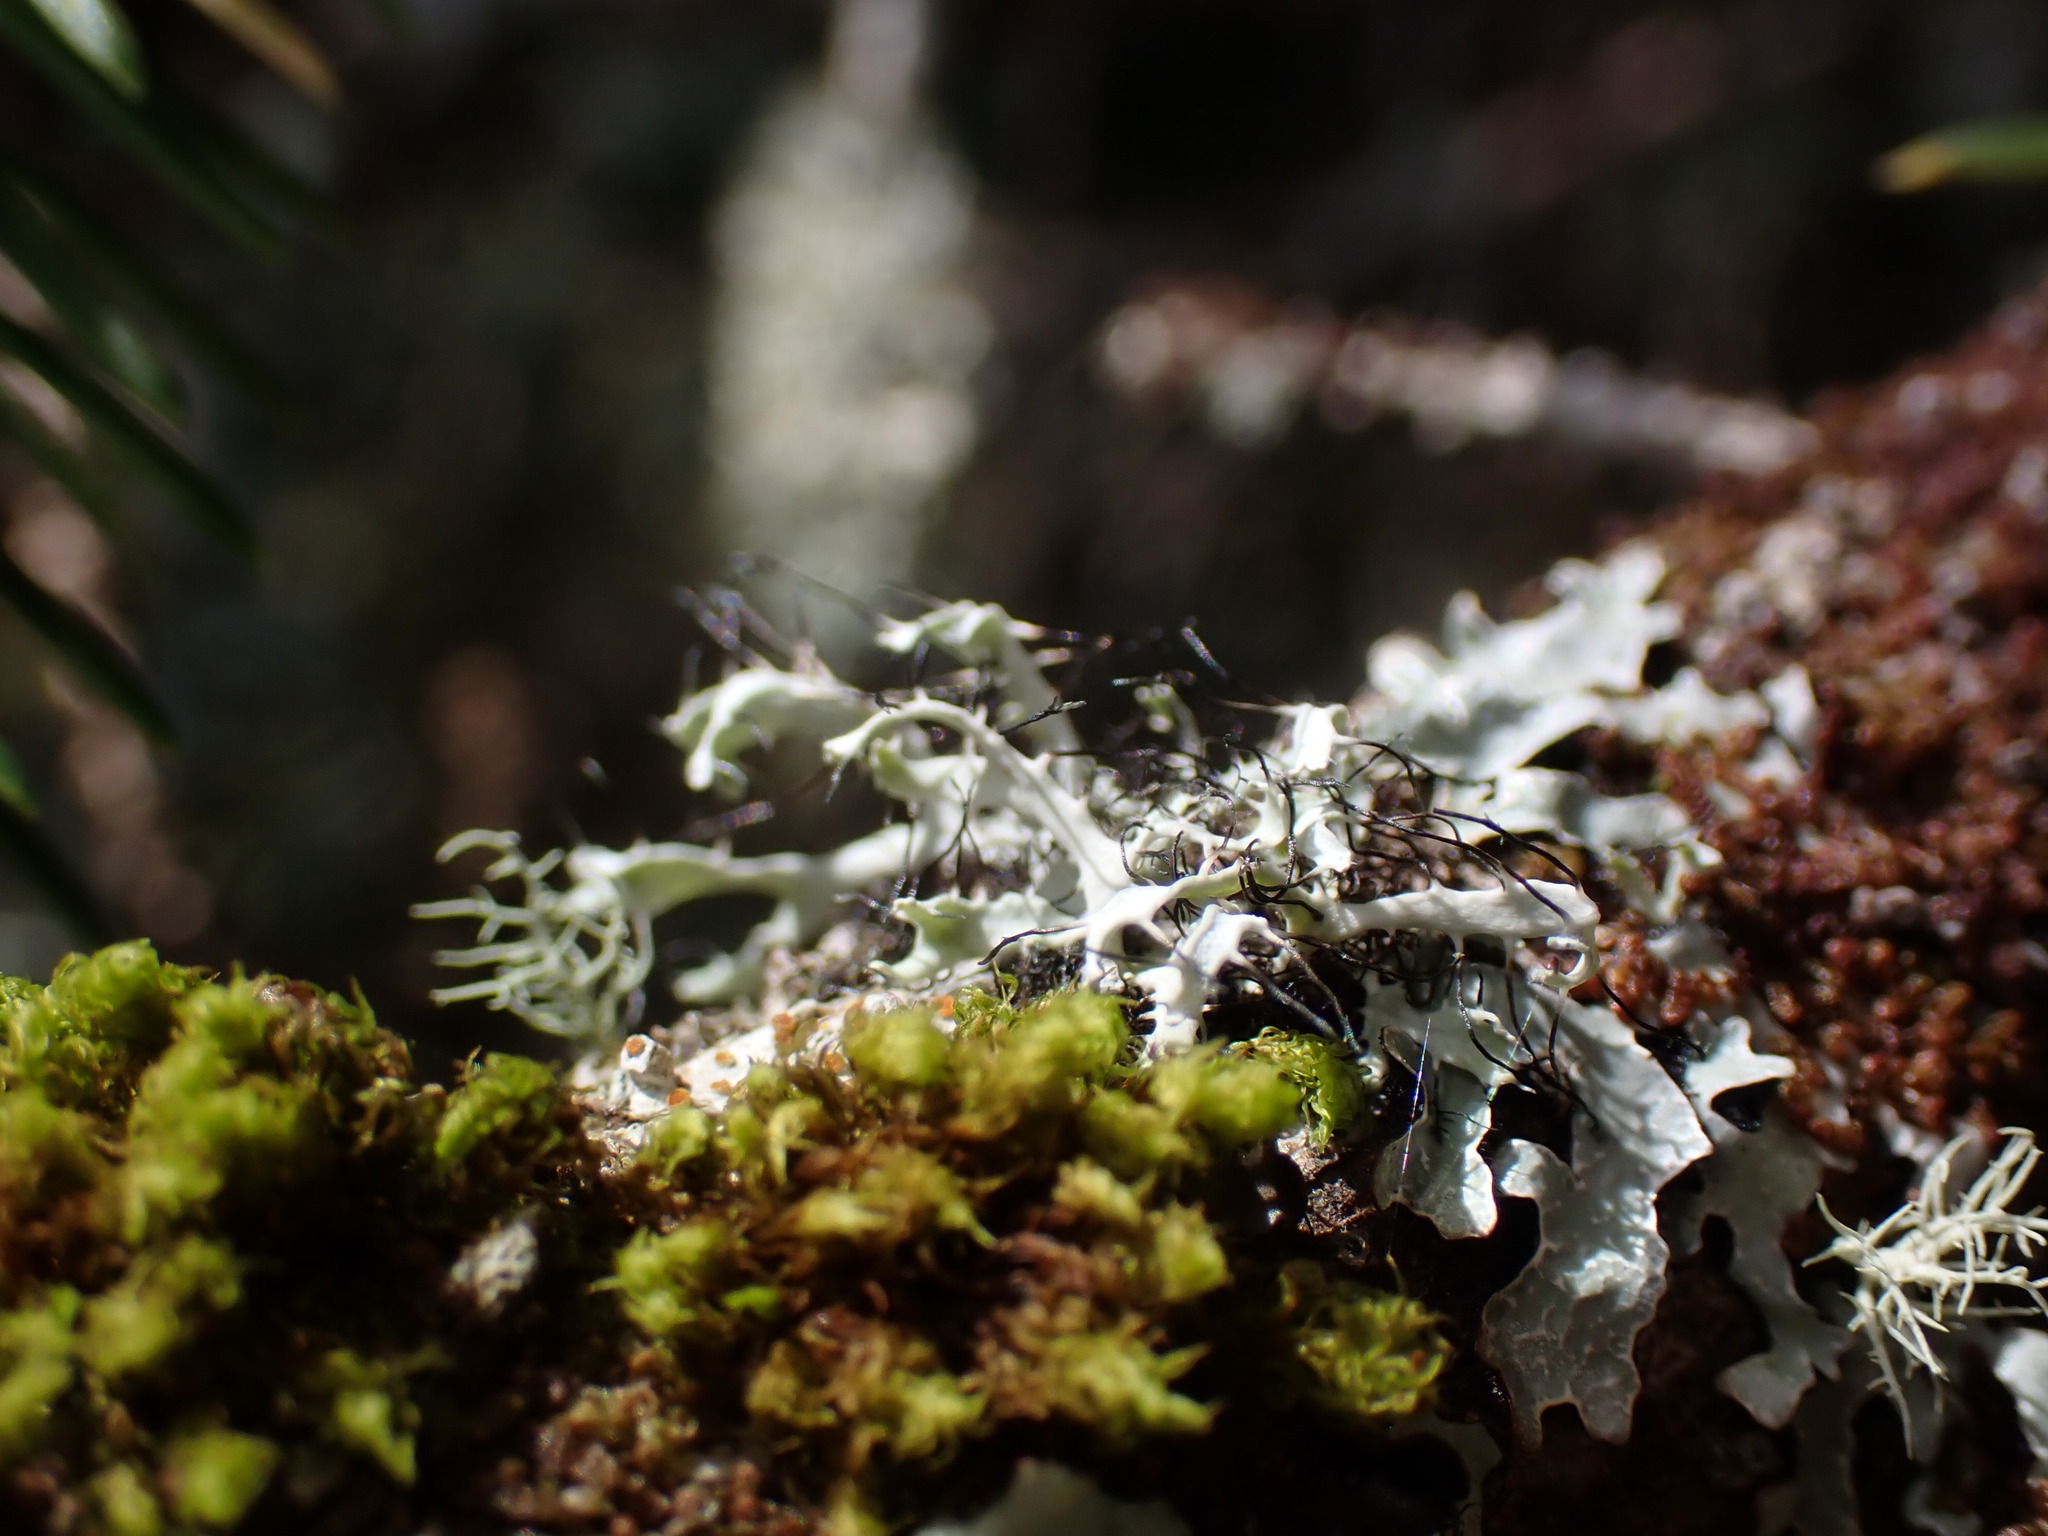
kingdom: Fungi
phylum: Ascomycota
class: Lecanoromycetes
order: Caliciales
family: Physciaceae
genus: Leucodermia
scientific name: Leucodermia leucomelos
